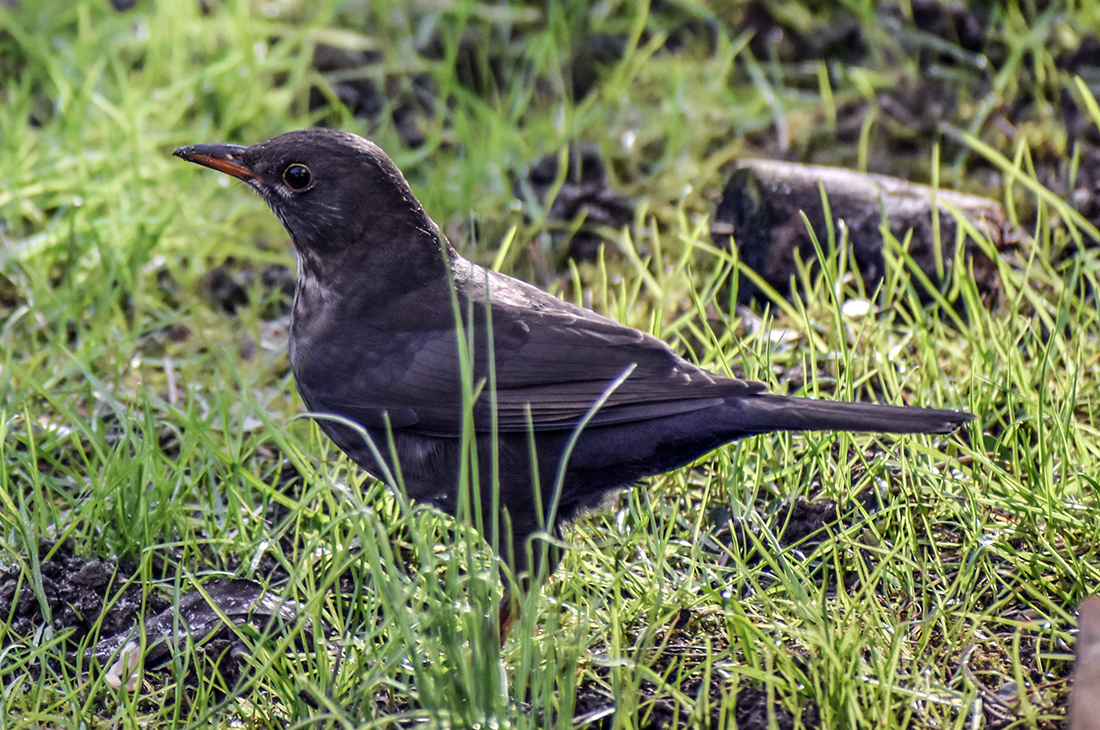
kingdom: Animalia
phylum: Chordata
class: Aves
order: Passeriformes
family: Turdidae
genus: Turdus
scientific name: Turdus merula
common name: Common blackbird
